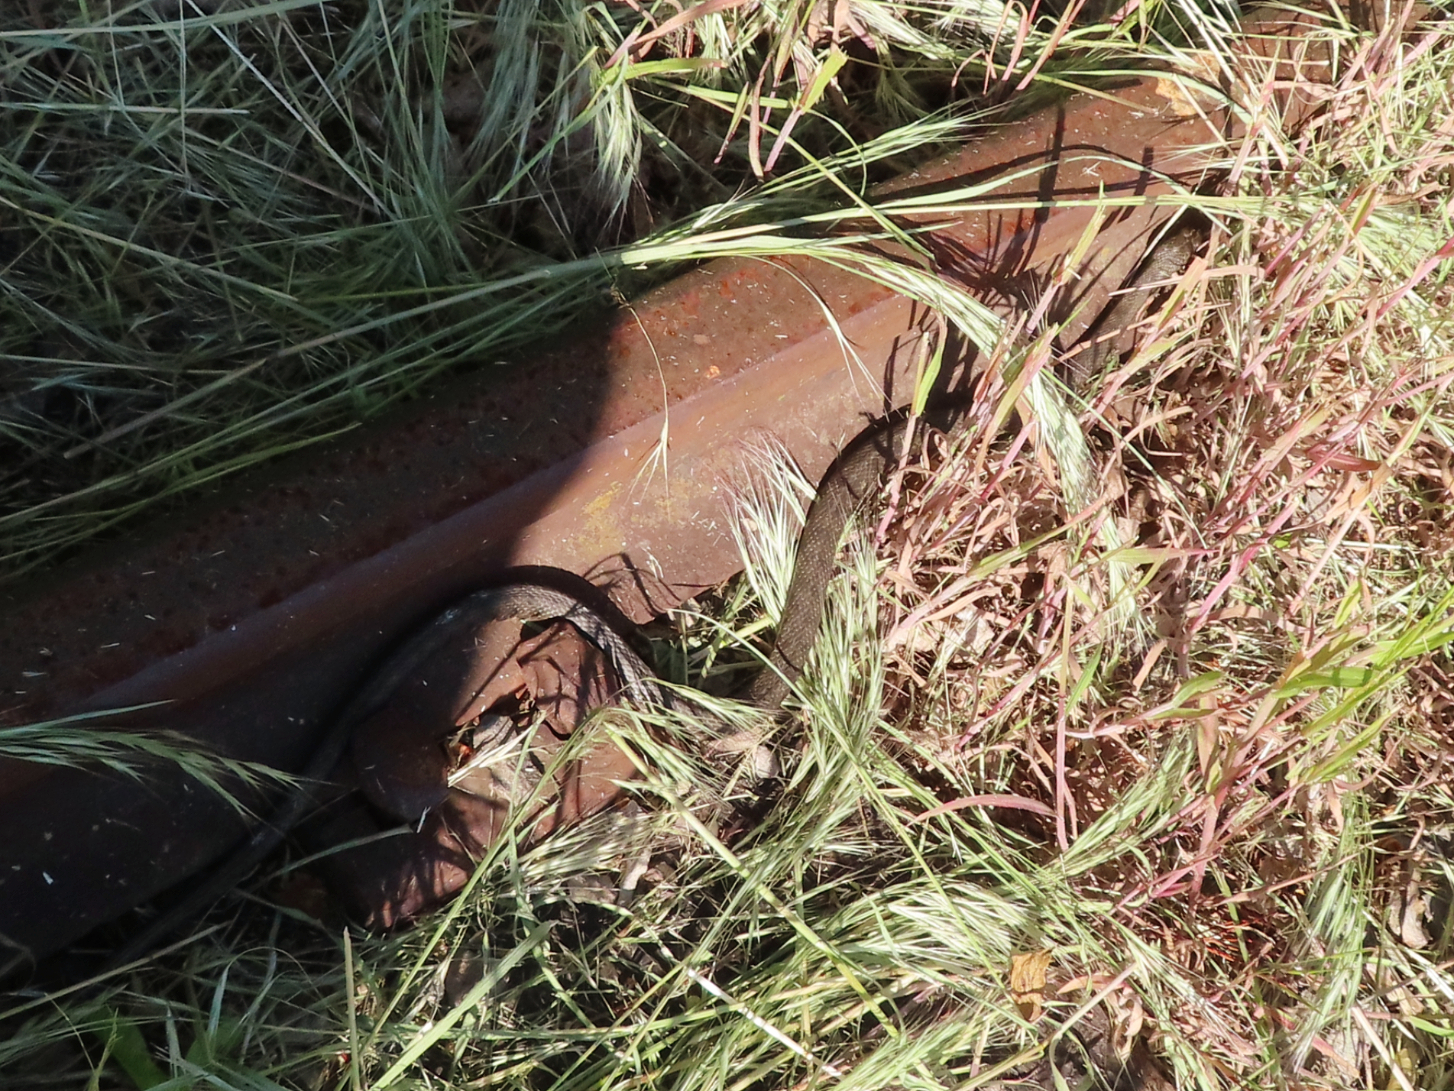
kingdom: Animalia
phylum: Chordata
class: Squamata
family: Colubridae
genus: Natrix
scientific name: Natrix tessellata
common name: Dice snake
